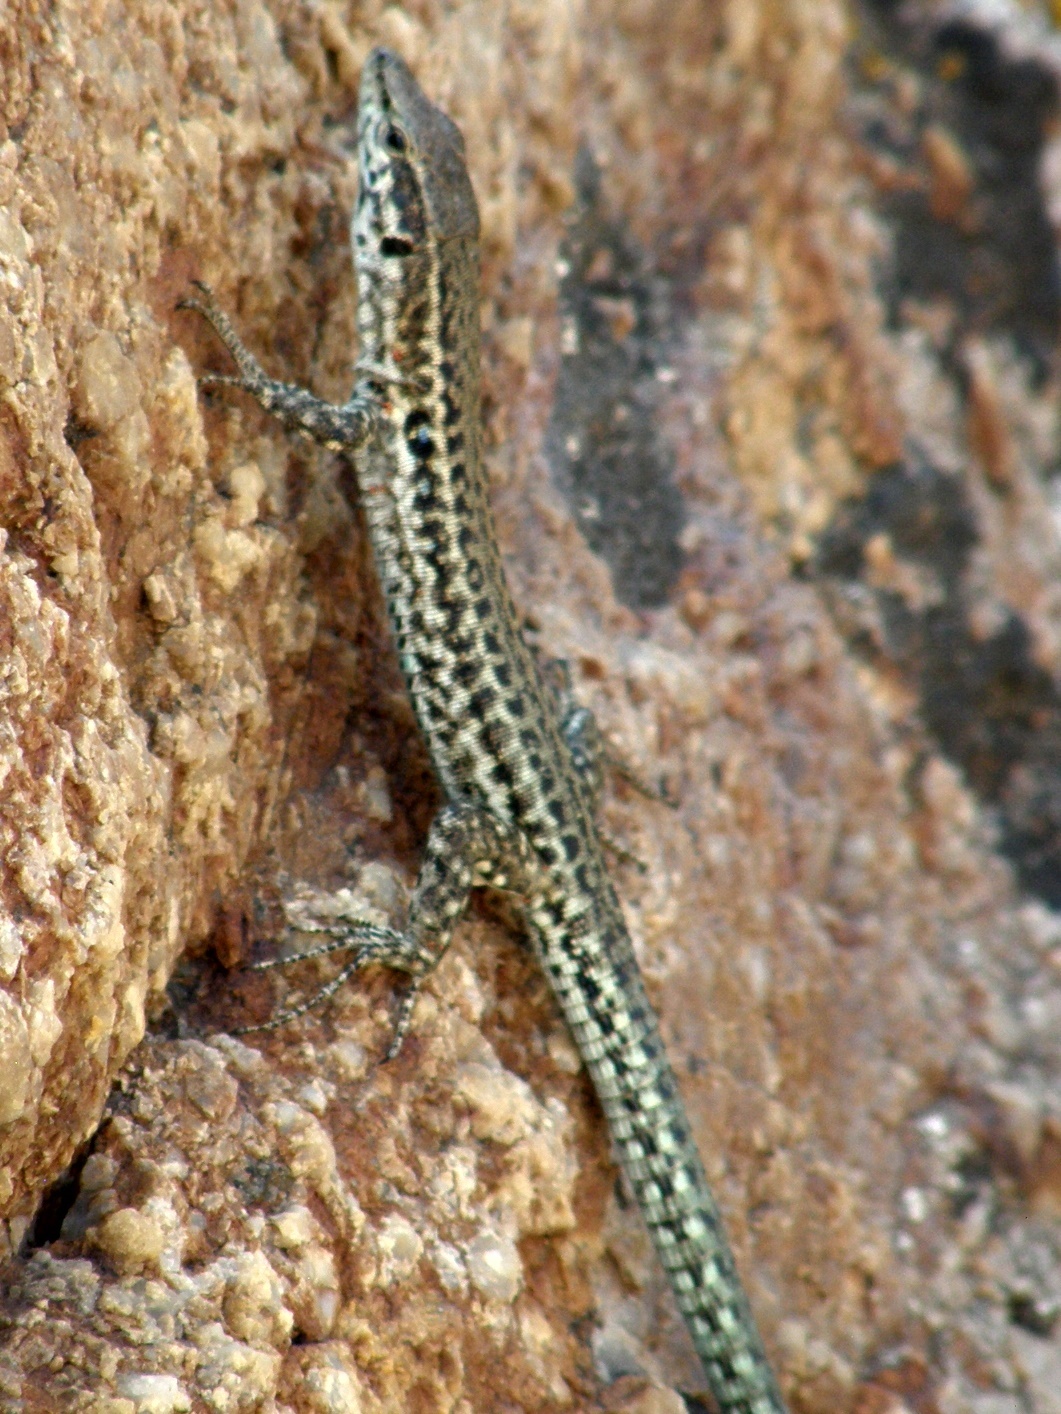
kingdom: Animalia
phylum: Chordata
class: Squamata
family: Lacertidae
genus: Podarcis
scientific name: Podarcis tiliguerta
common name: Tyrrhenian wall lizard
